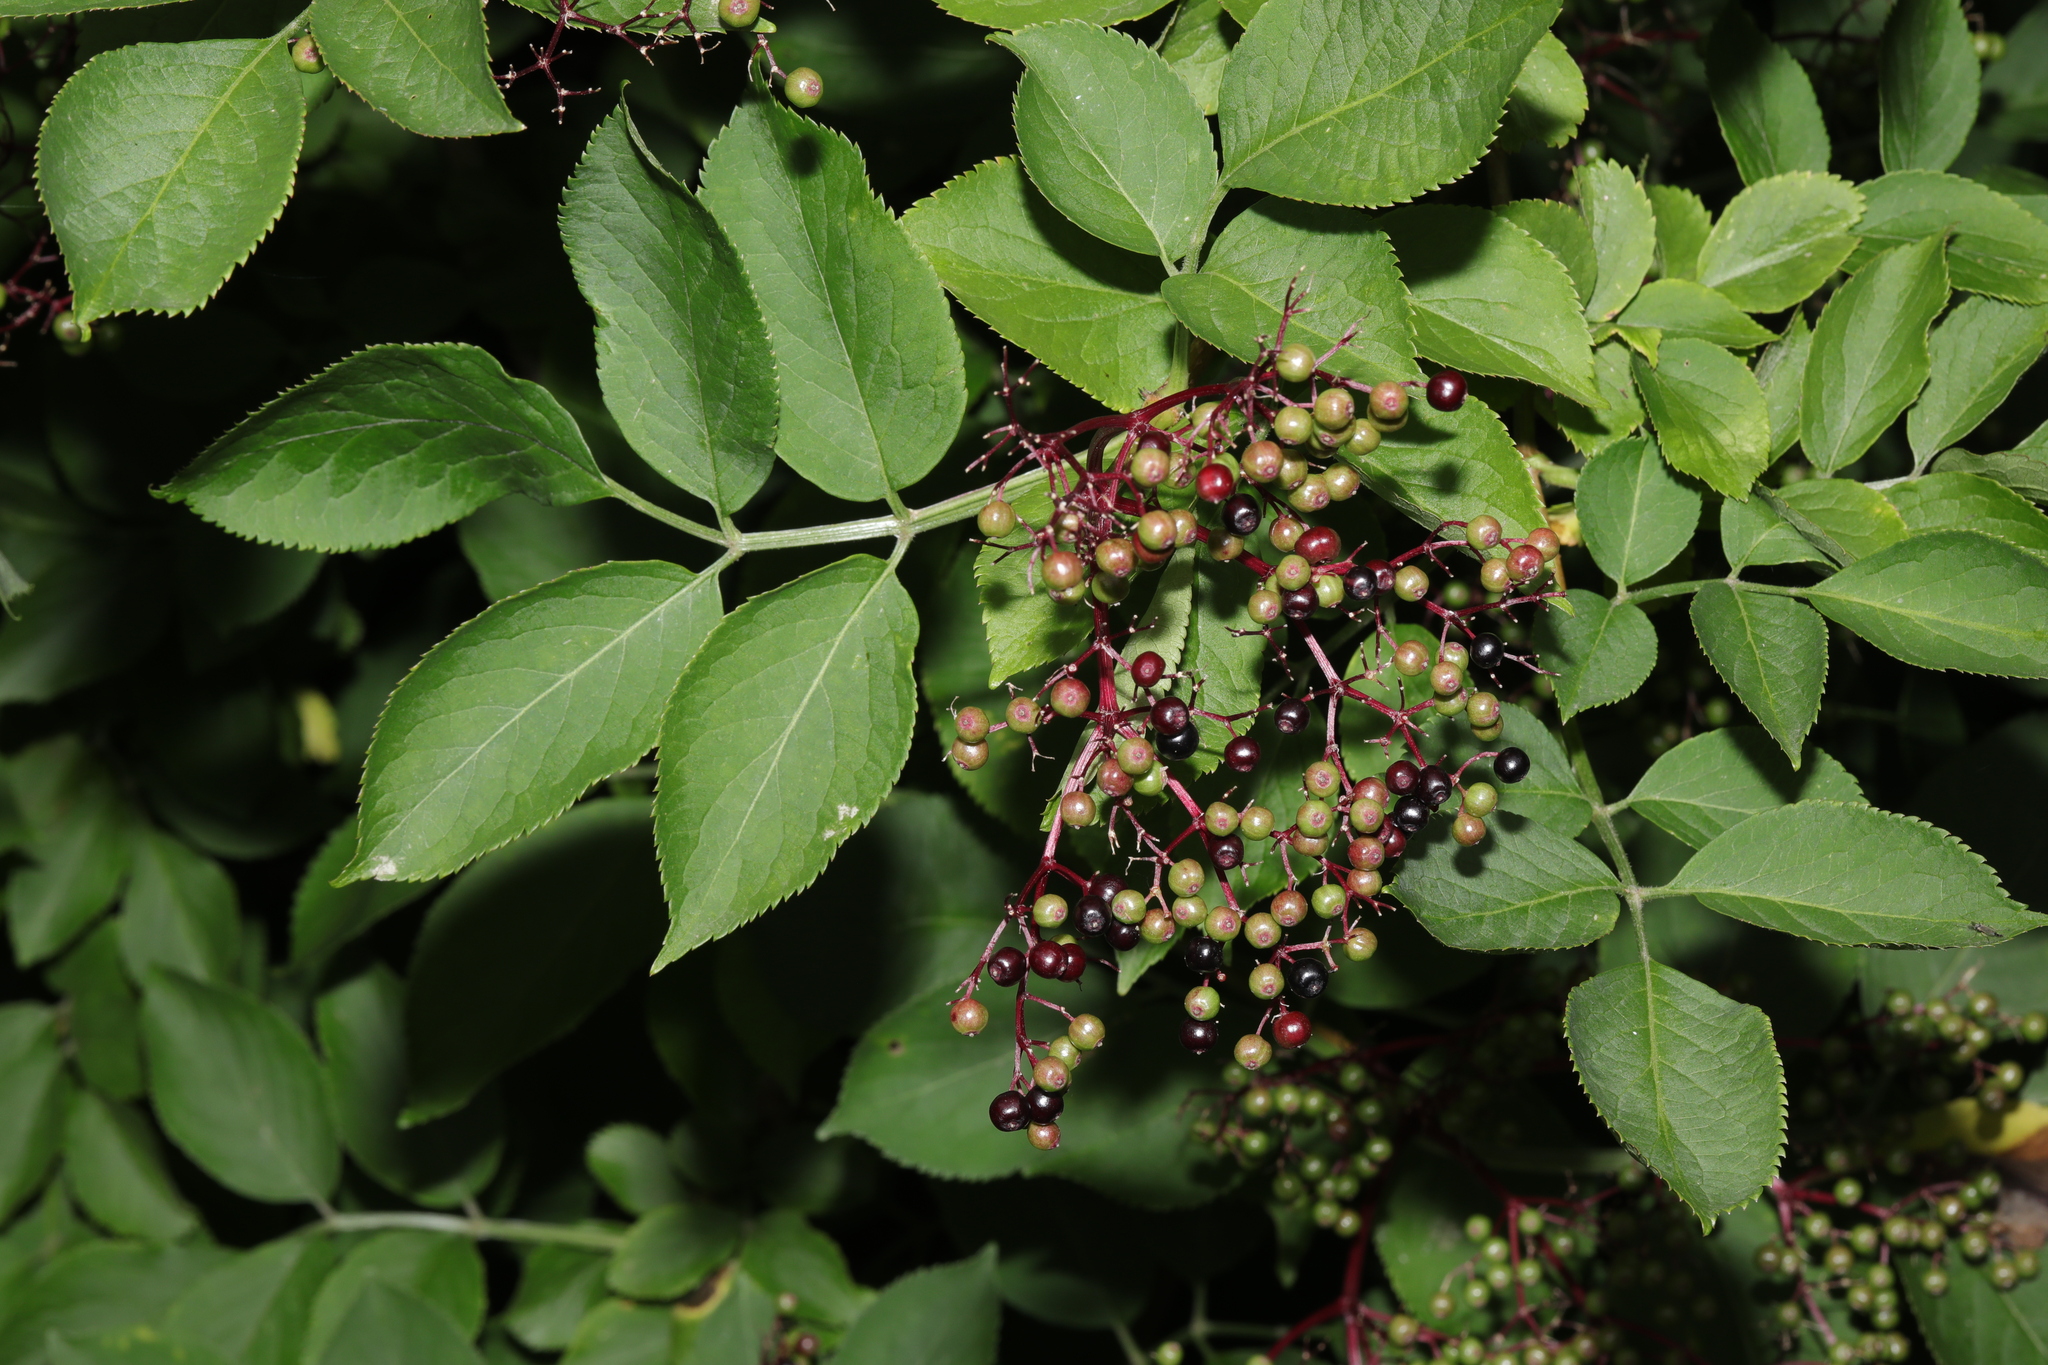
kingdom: Plantae
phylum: Tracheophyta
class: Magnoliopsida
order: Dipsacales
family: Viburnaceae
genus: Sambucus
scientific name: Sambucus nigra
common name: Elder
